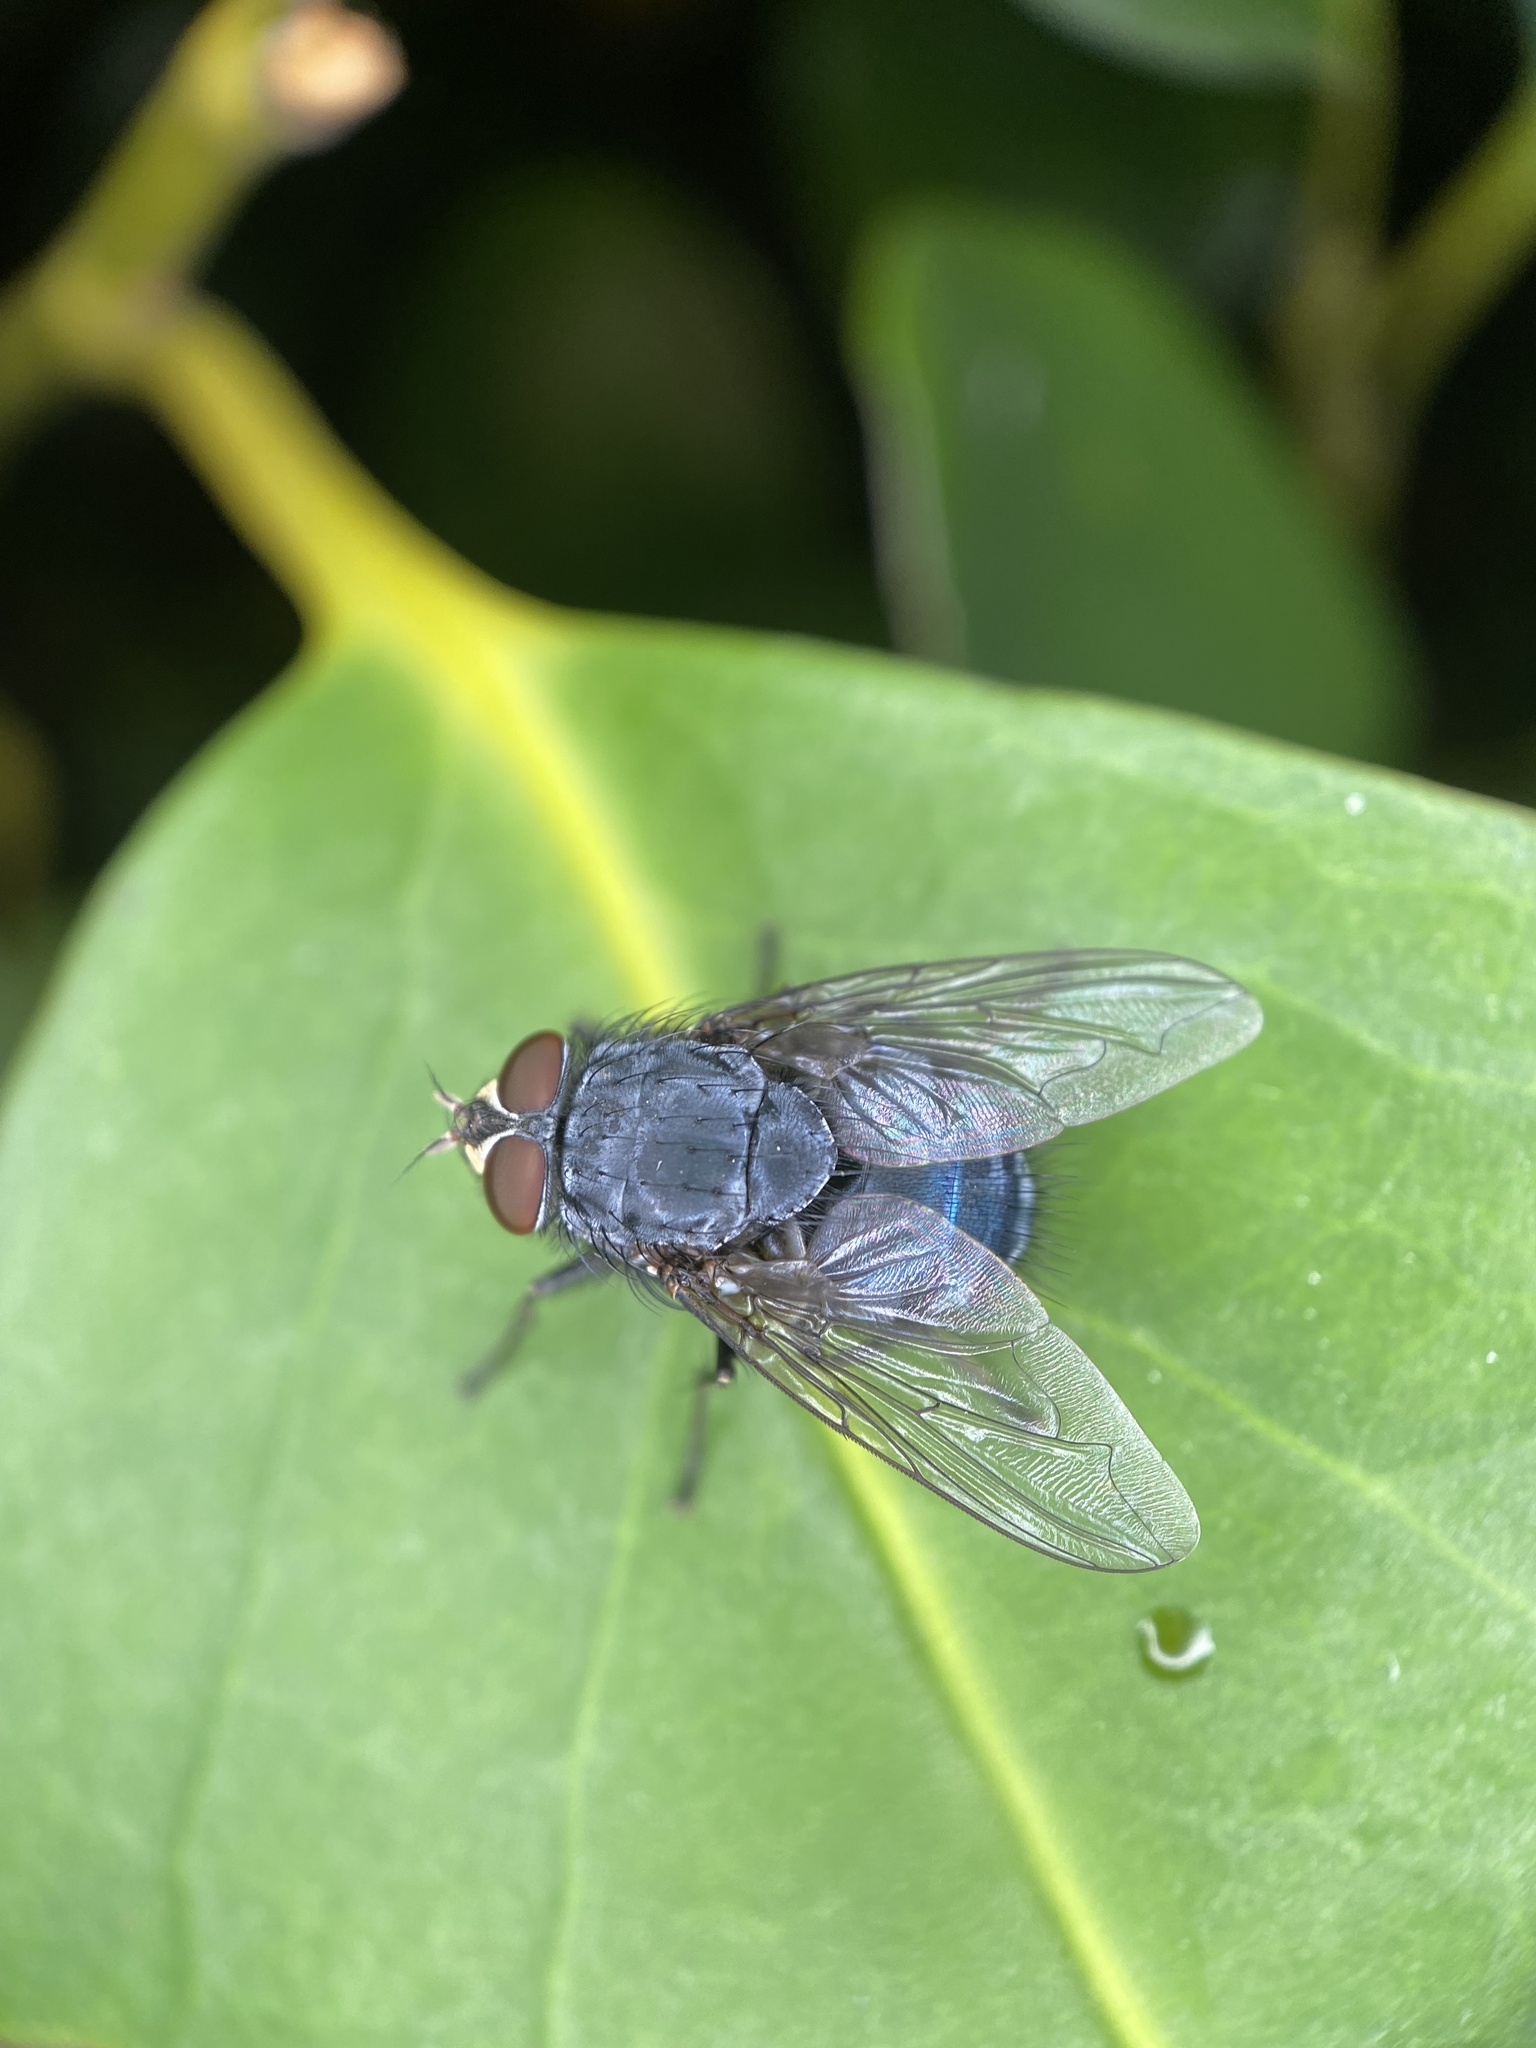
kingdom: Animalia
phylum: Arthropoda
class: Insecta
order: Diptera
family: Calliphoridae
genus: Calliphora
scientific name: Calliphora vicina
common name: Common blow flie
